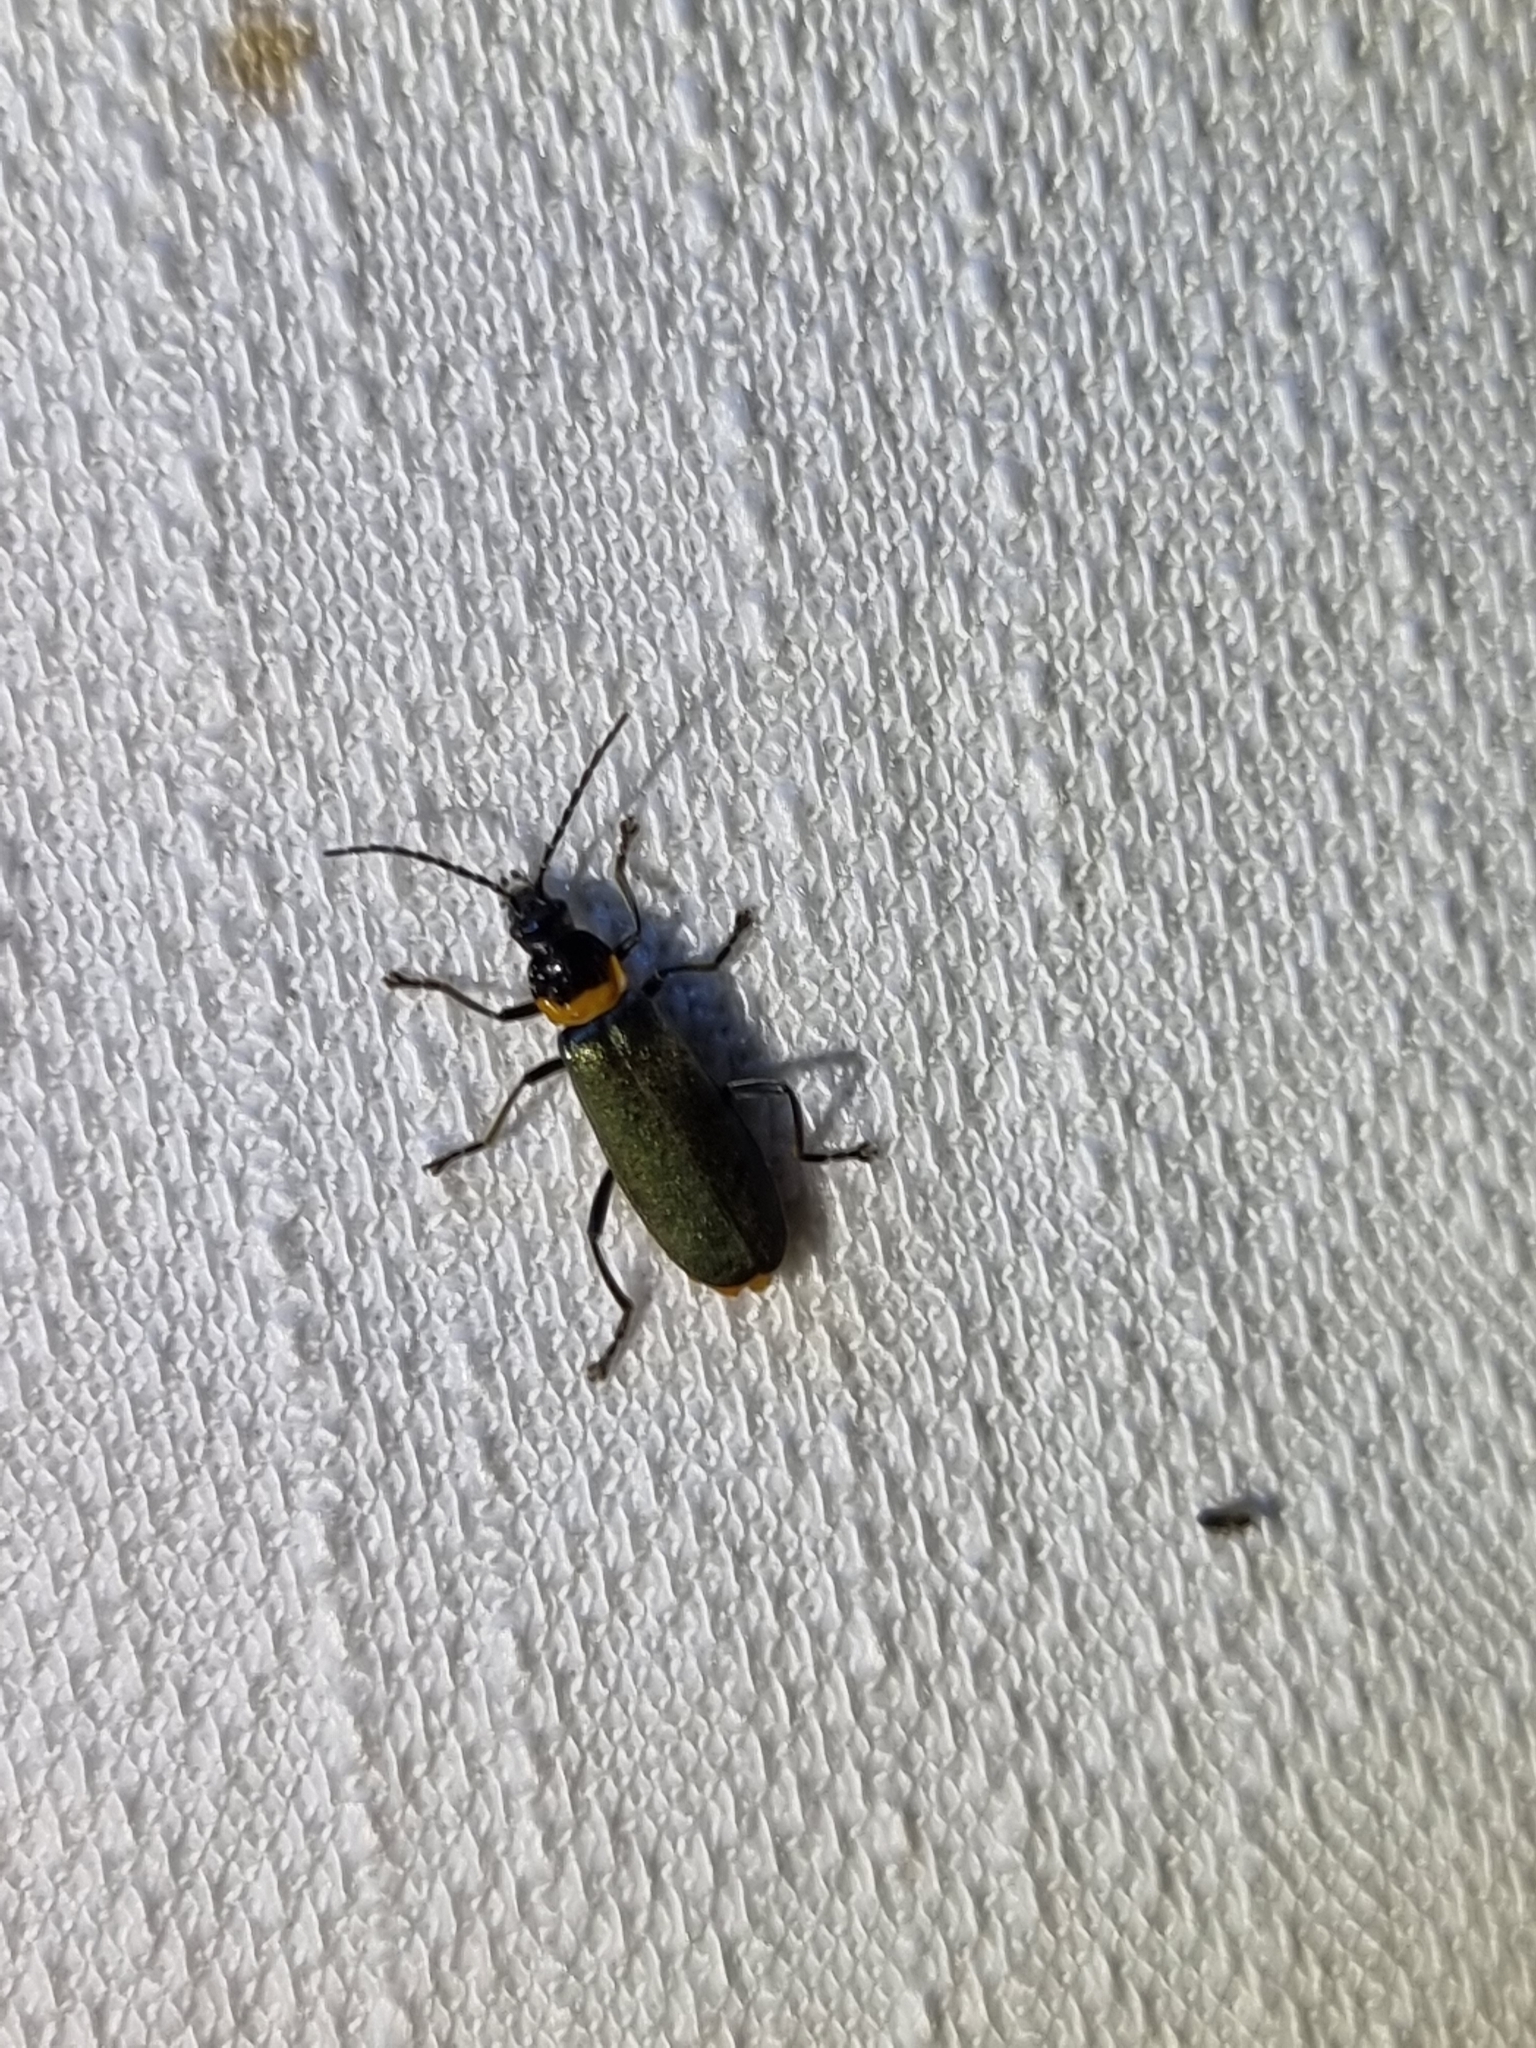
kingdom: Animalia
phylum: Arthropoda
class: Insecta
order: Coleoptera
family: Cantharidae
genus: Chauliognathus
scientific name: Chauliognathus
